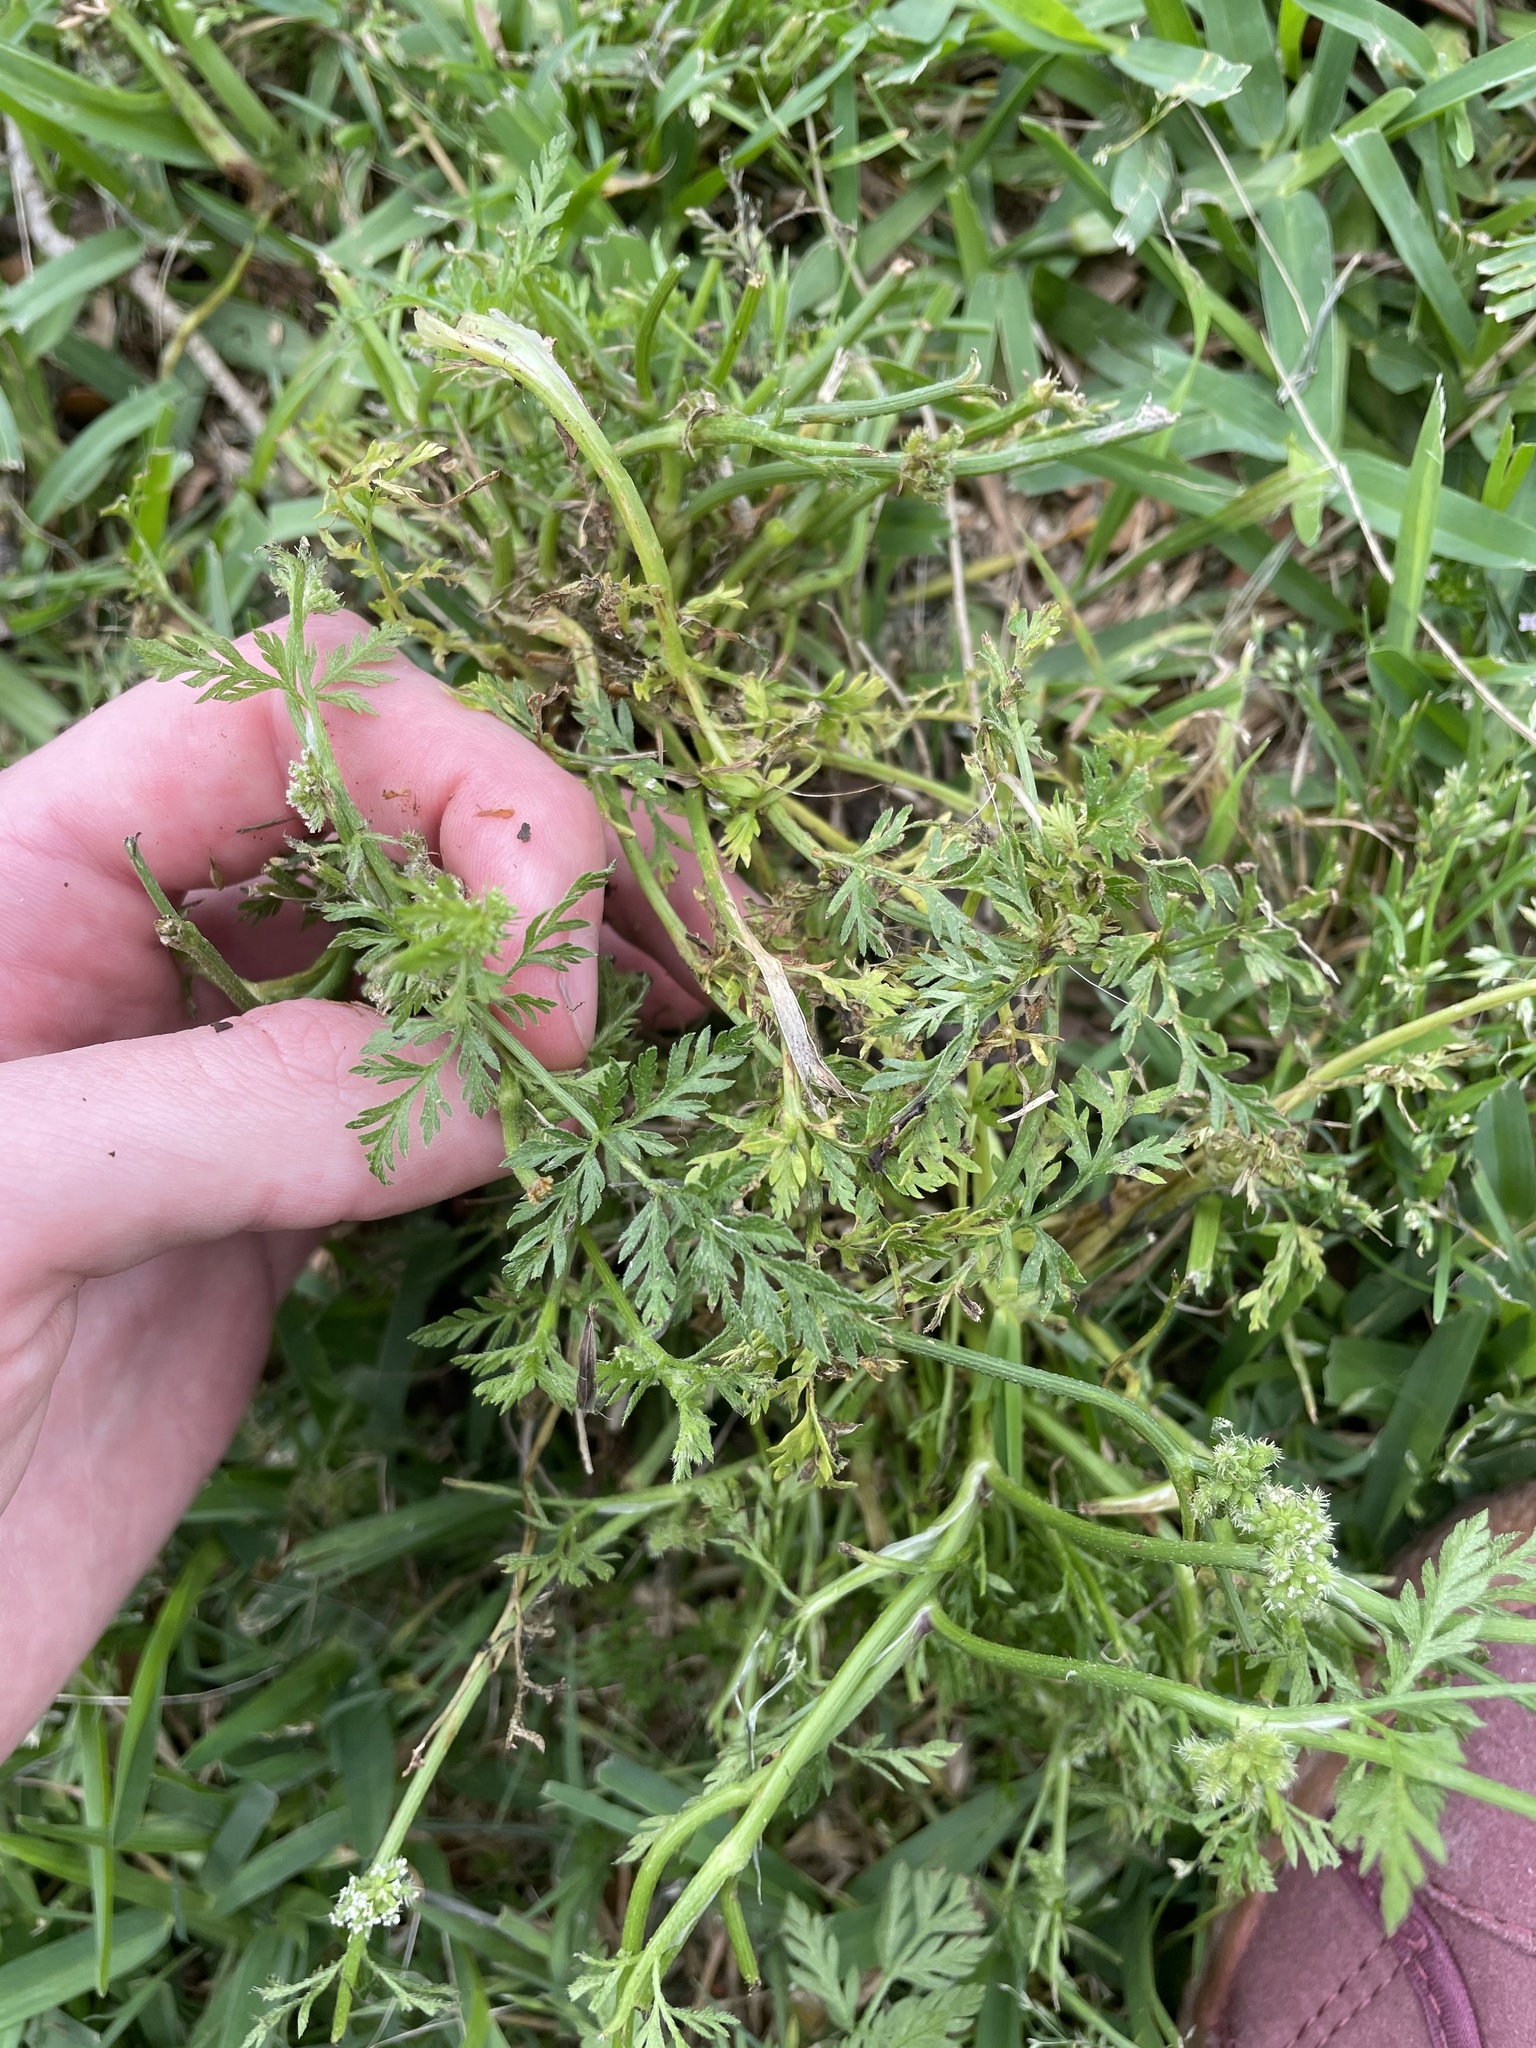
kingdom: Plantae
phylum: Tracheophyta
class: Magnoliopsida
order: Apiales
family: Apiaceae
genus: Torilis
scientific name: Torilis nodosa
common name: Knotted hedge-parsley
